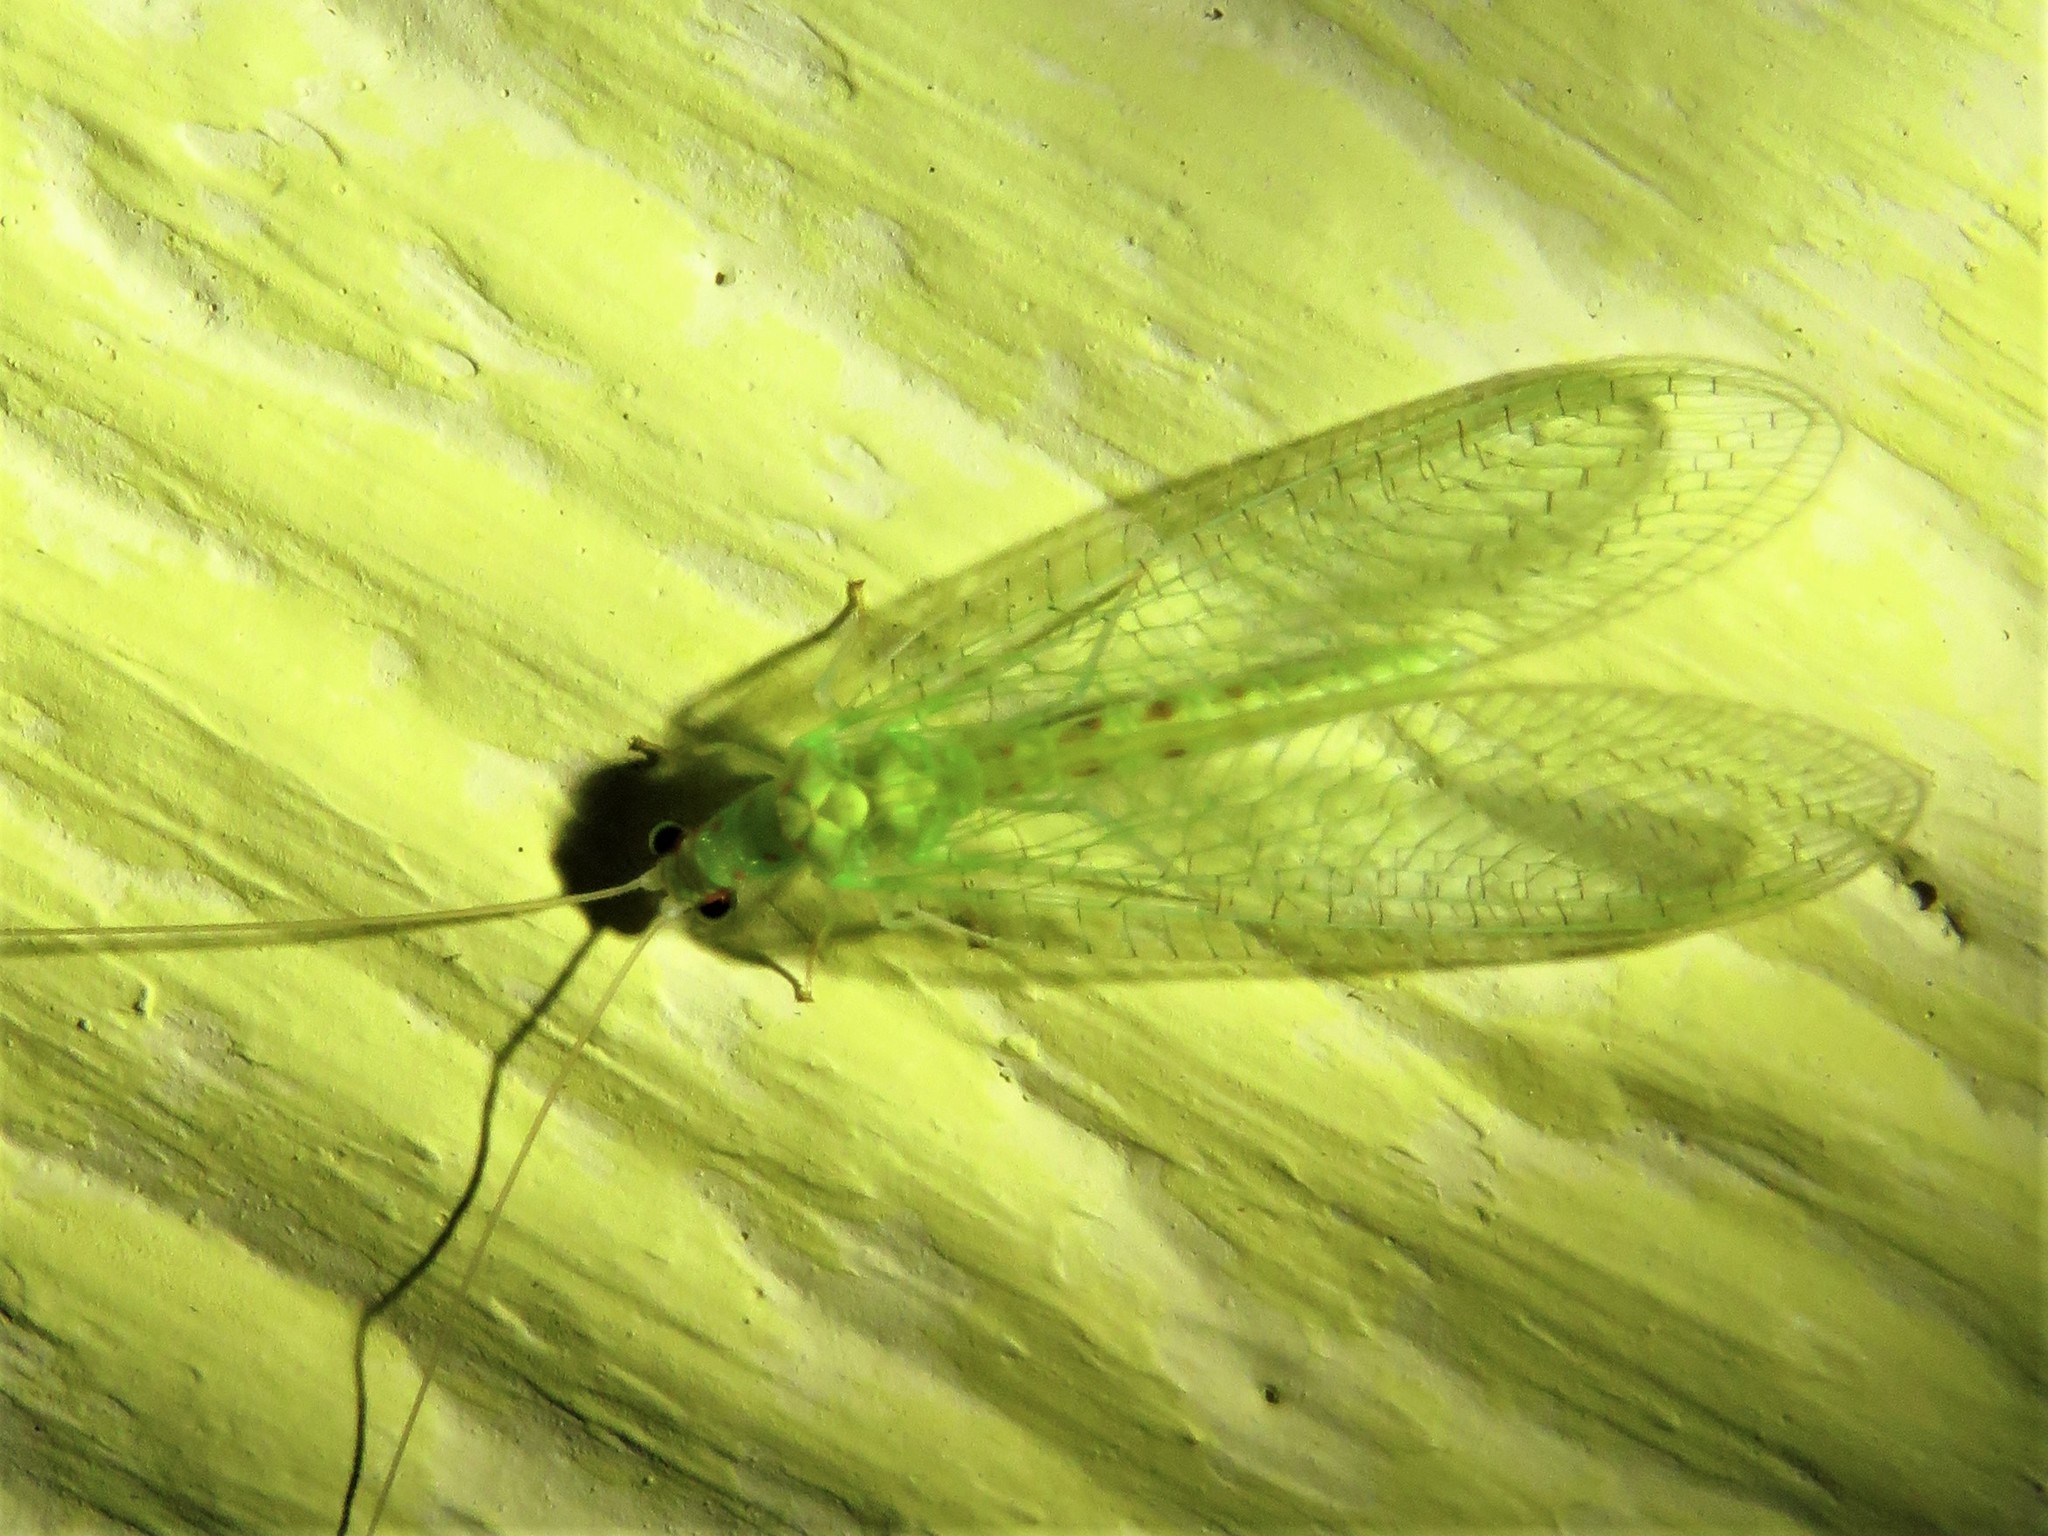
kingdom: Animalia
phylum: Arthropoda
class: Insecta
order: Neuroptera
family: Chrysopidae
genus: Chrysopa
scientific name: Chrysopa quadripunctata
